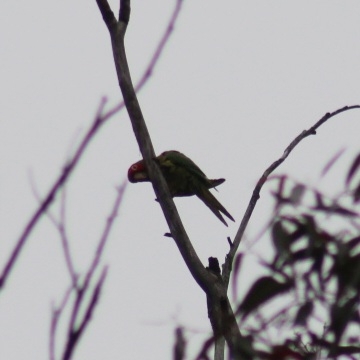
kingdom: Animalia
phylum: Chordata
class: Aves
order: Psittaciformes
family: Psittacidae
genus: Aratinga
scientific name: Aratinga erythrogenys
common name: Red-masked parakeet
